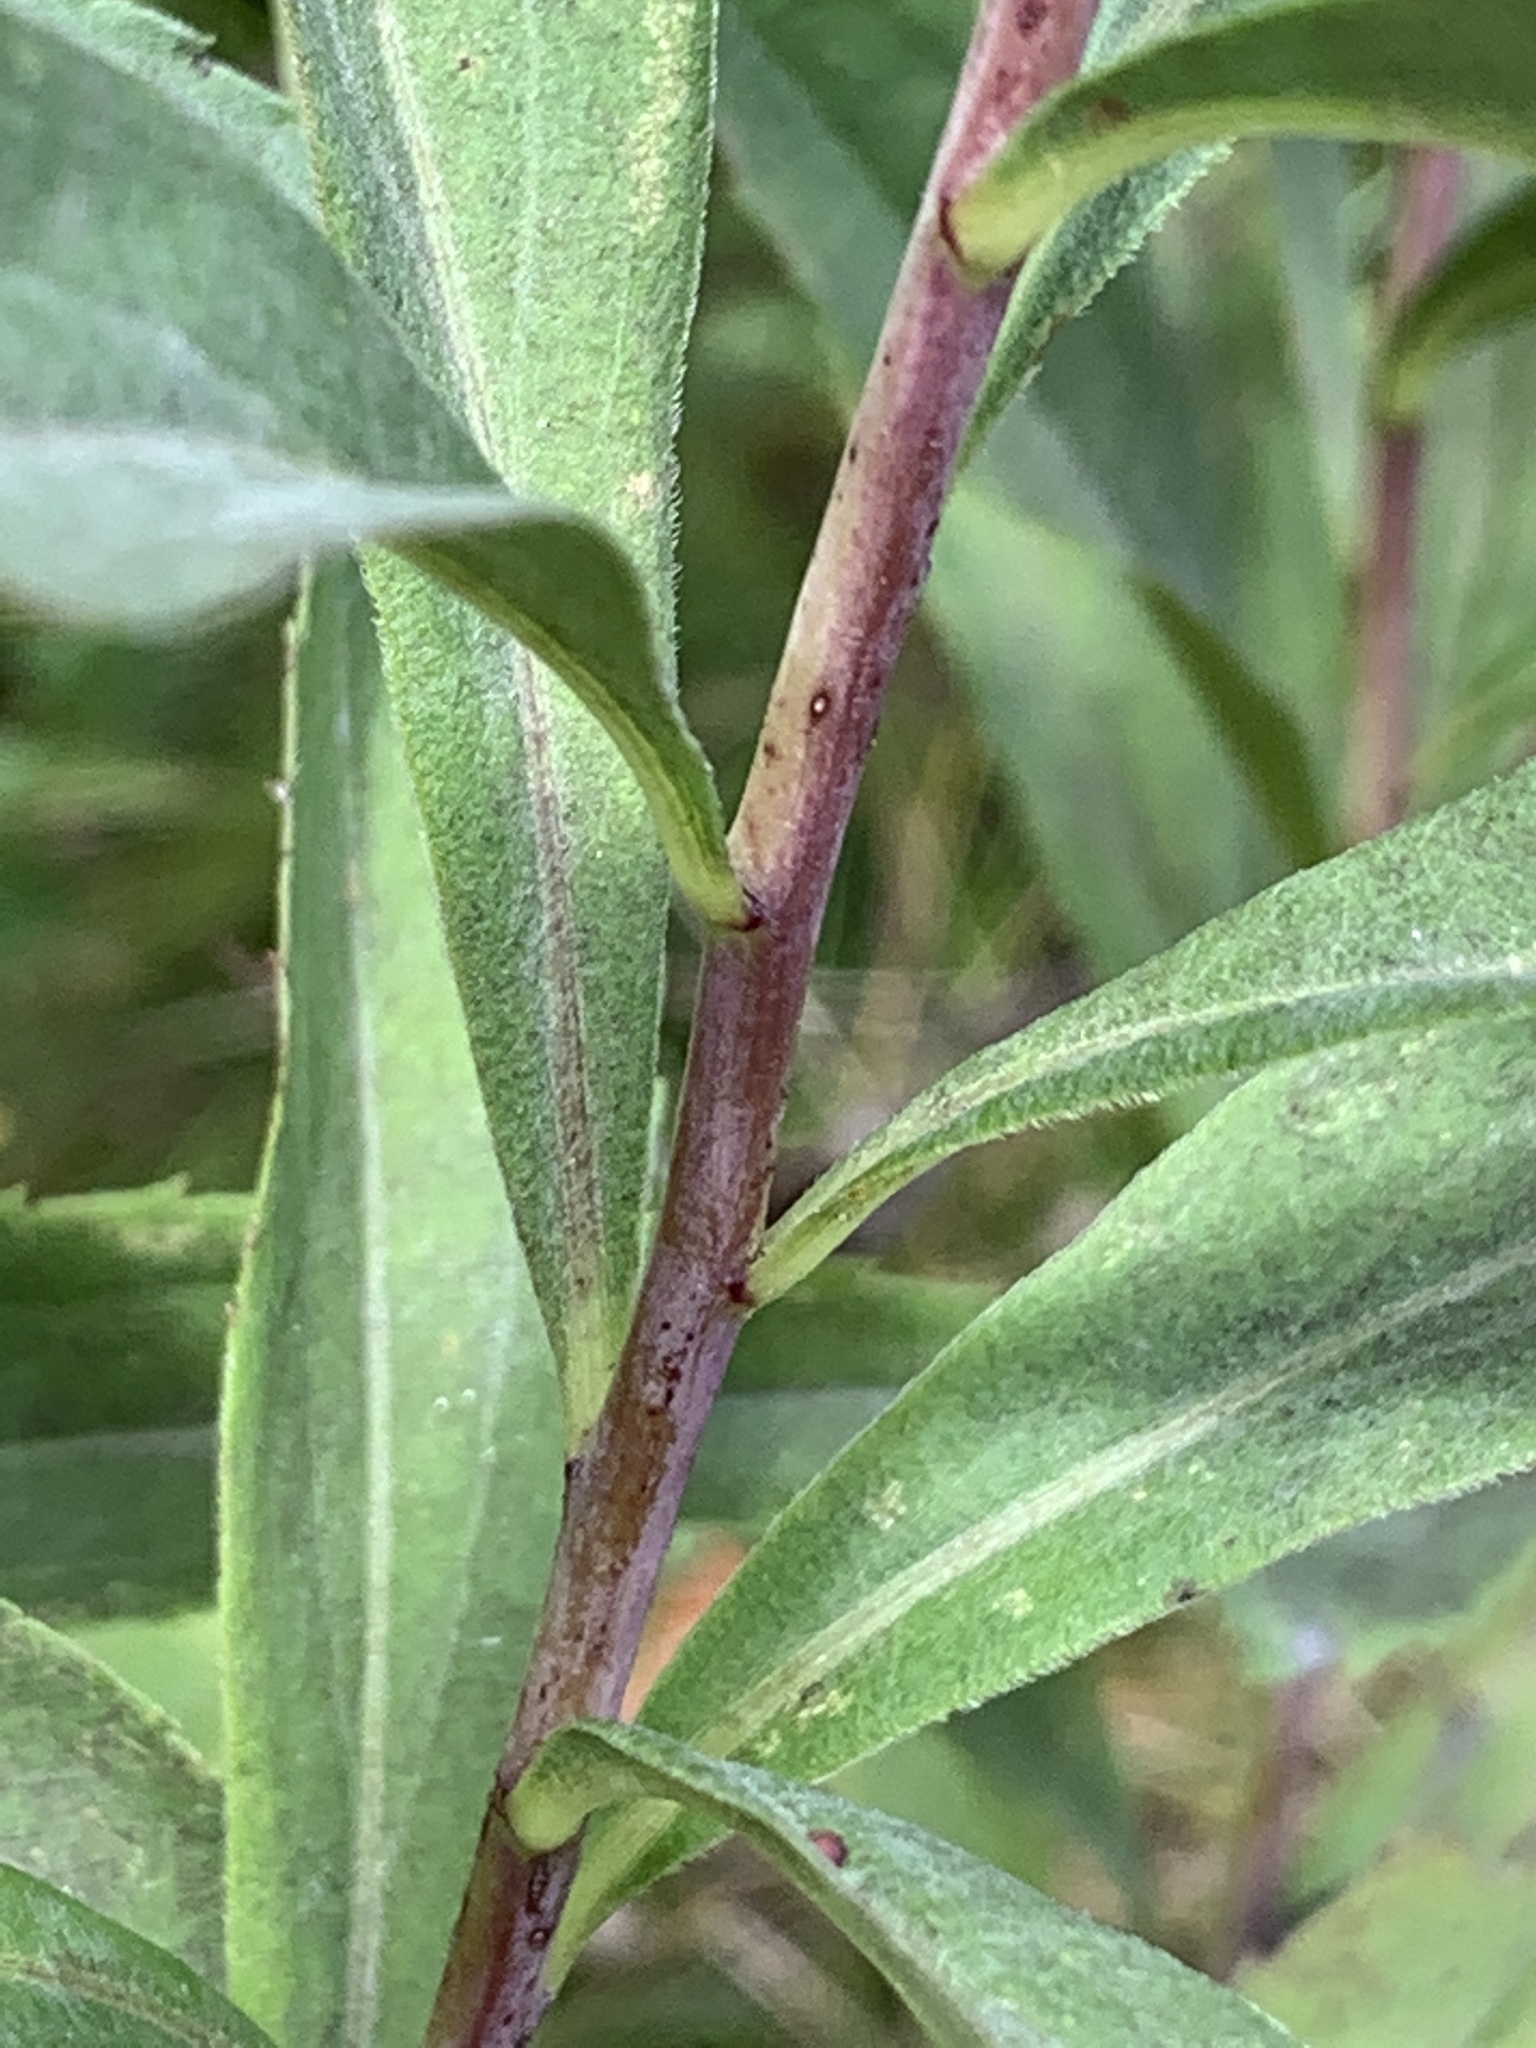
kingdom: Plantae
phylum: Tracheophyta
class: Magnoliopsida
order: Asterales
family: Asteraceae
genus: Solidago
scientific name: Solidago gigantea
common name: Giant goldenrod
